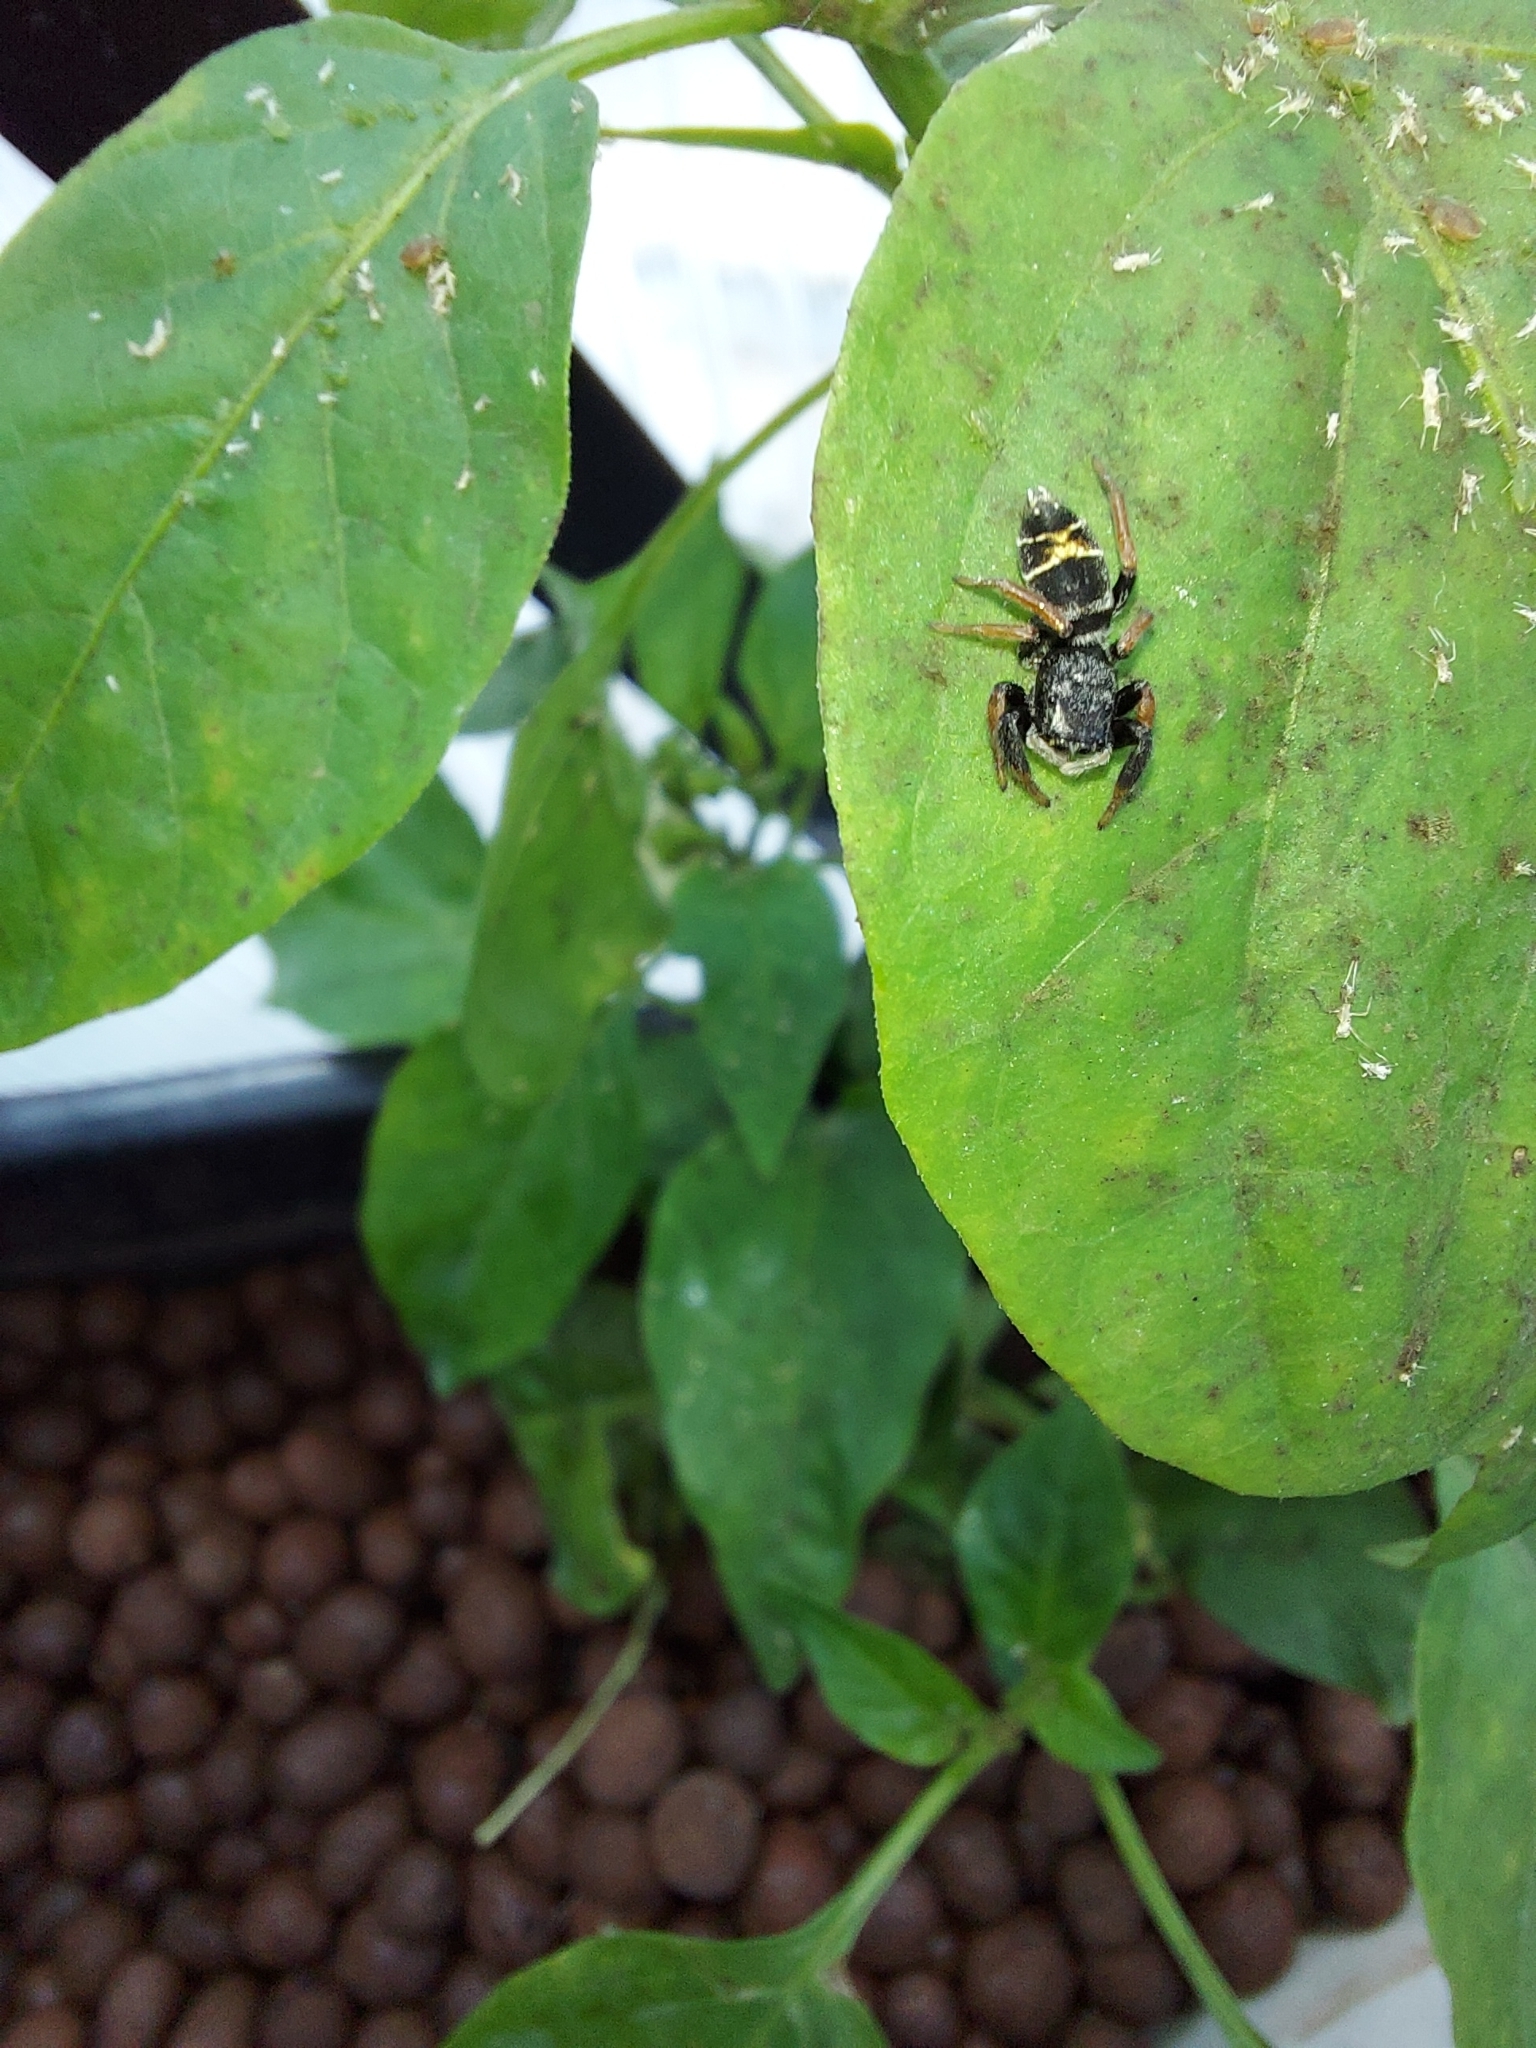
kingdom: Animalia
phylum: Arthropoda
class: Arachnida
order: Araneae
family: Salticidae
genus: Apricia
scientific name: Apricia jovialis
